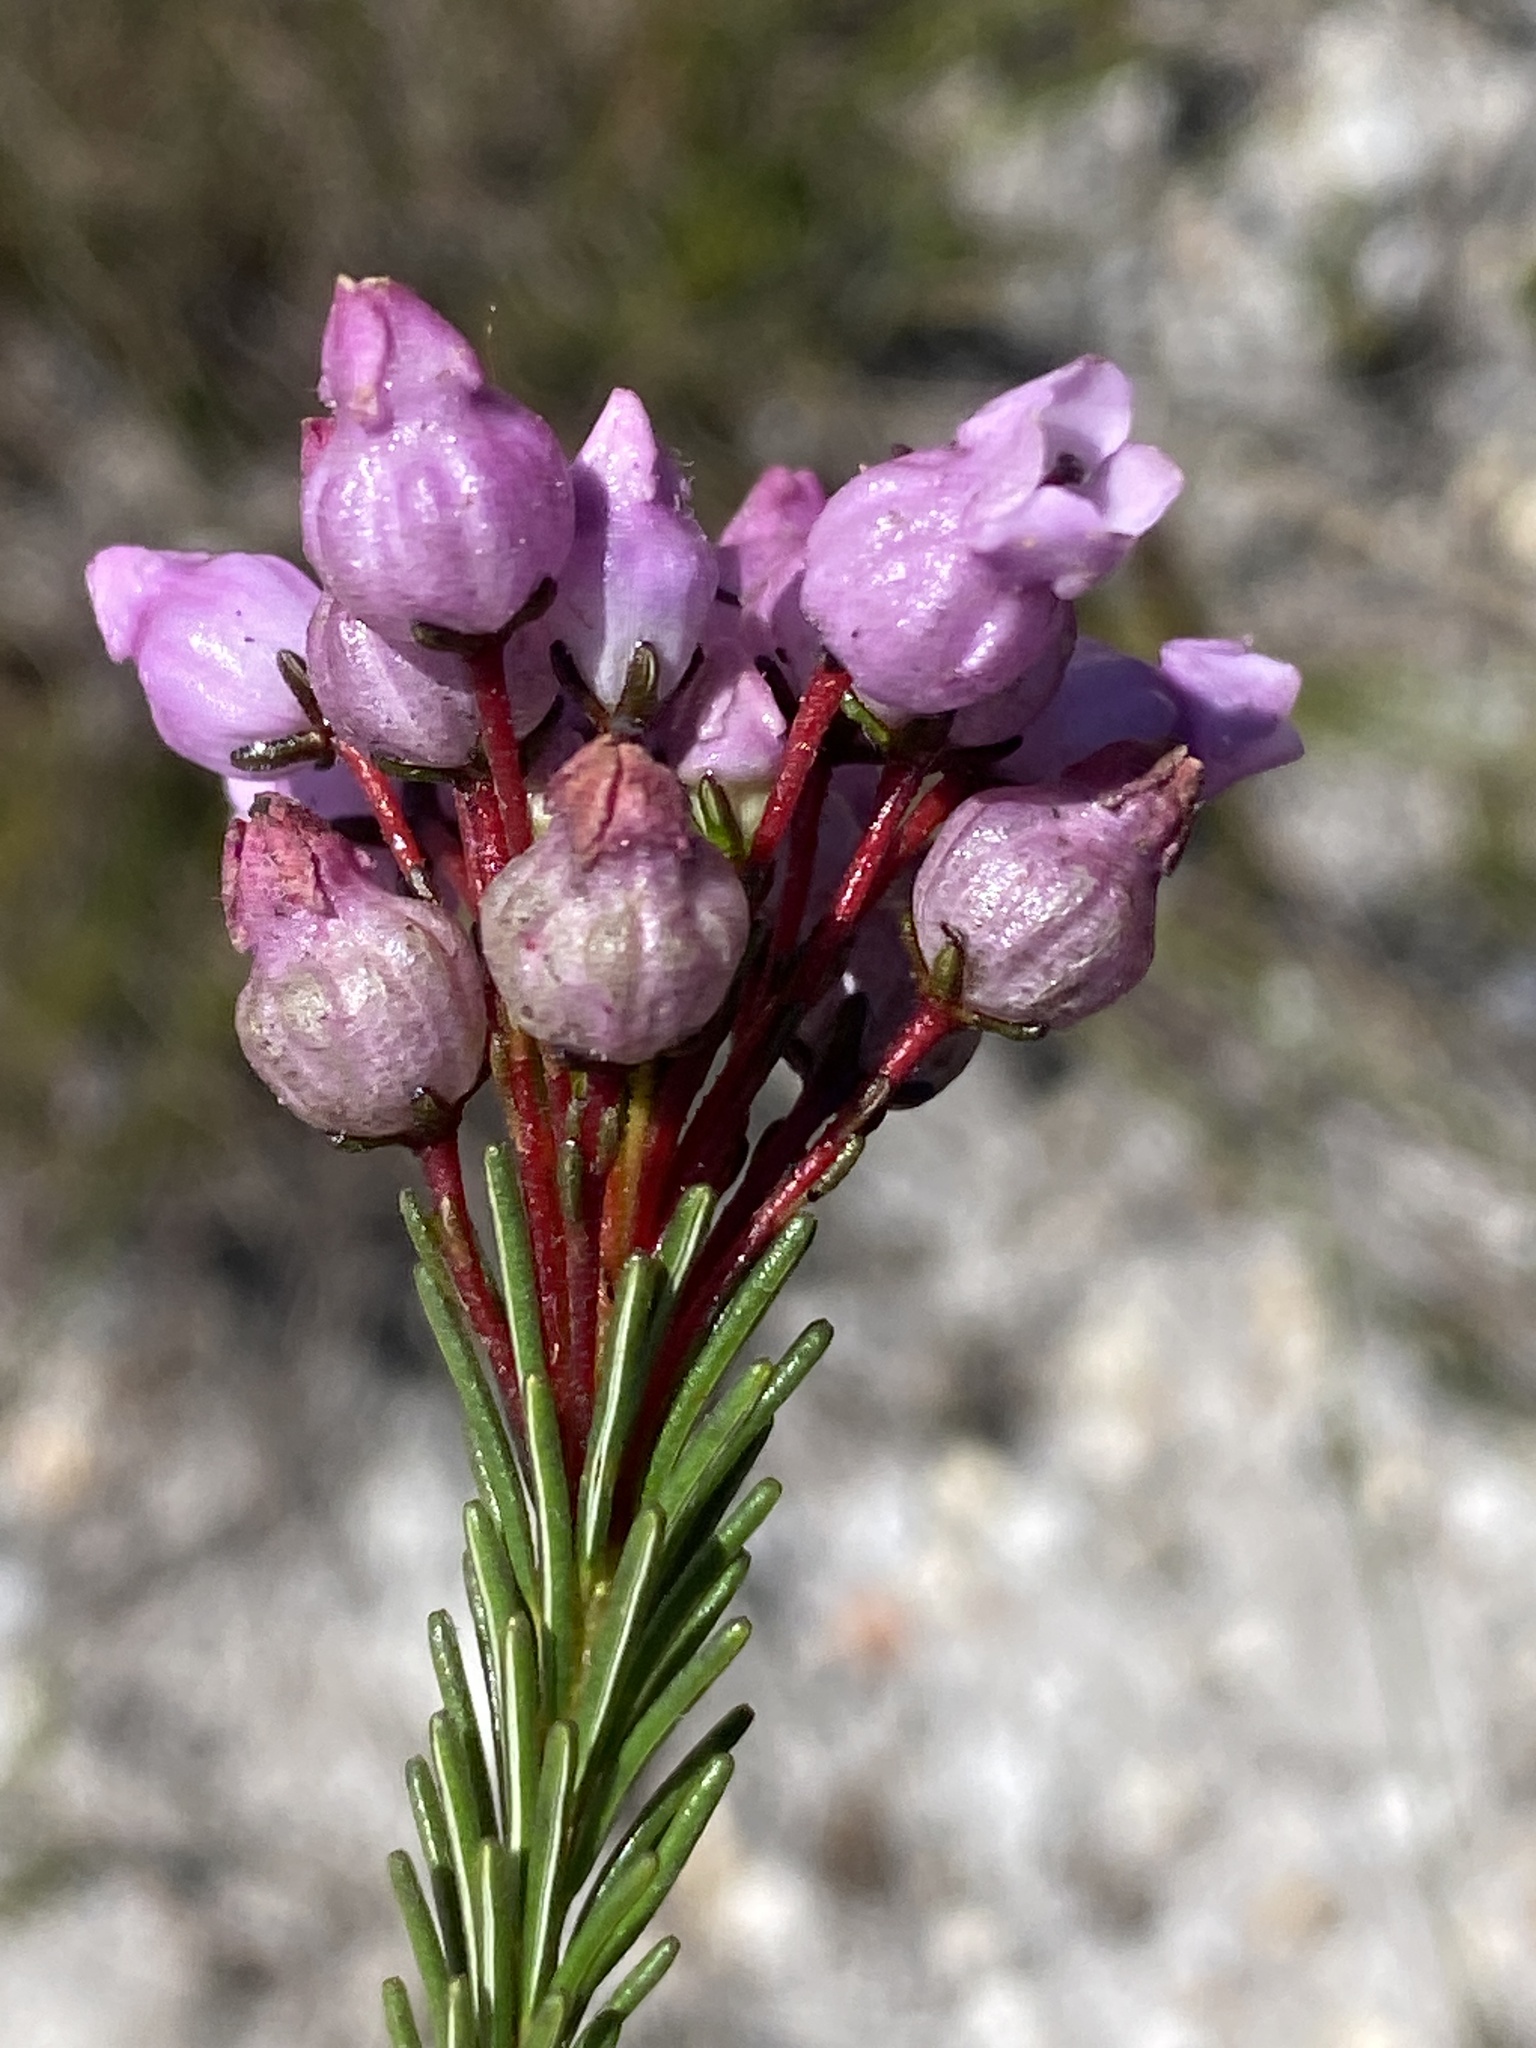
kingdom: Plantae
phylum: Tracheophyta
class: Magnoliopsida
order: Ericales
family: Ericaceae
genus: Erica
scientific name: Erica obliqua
